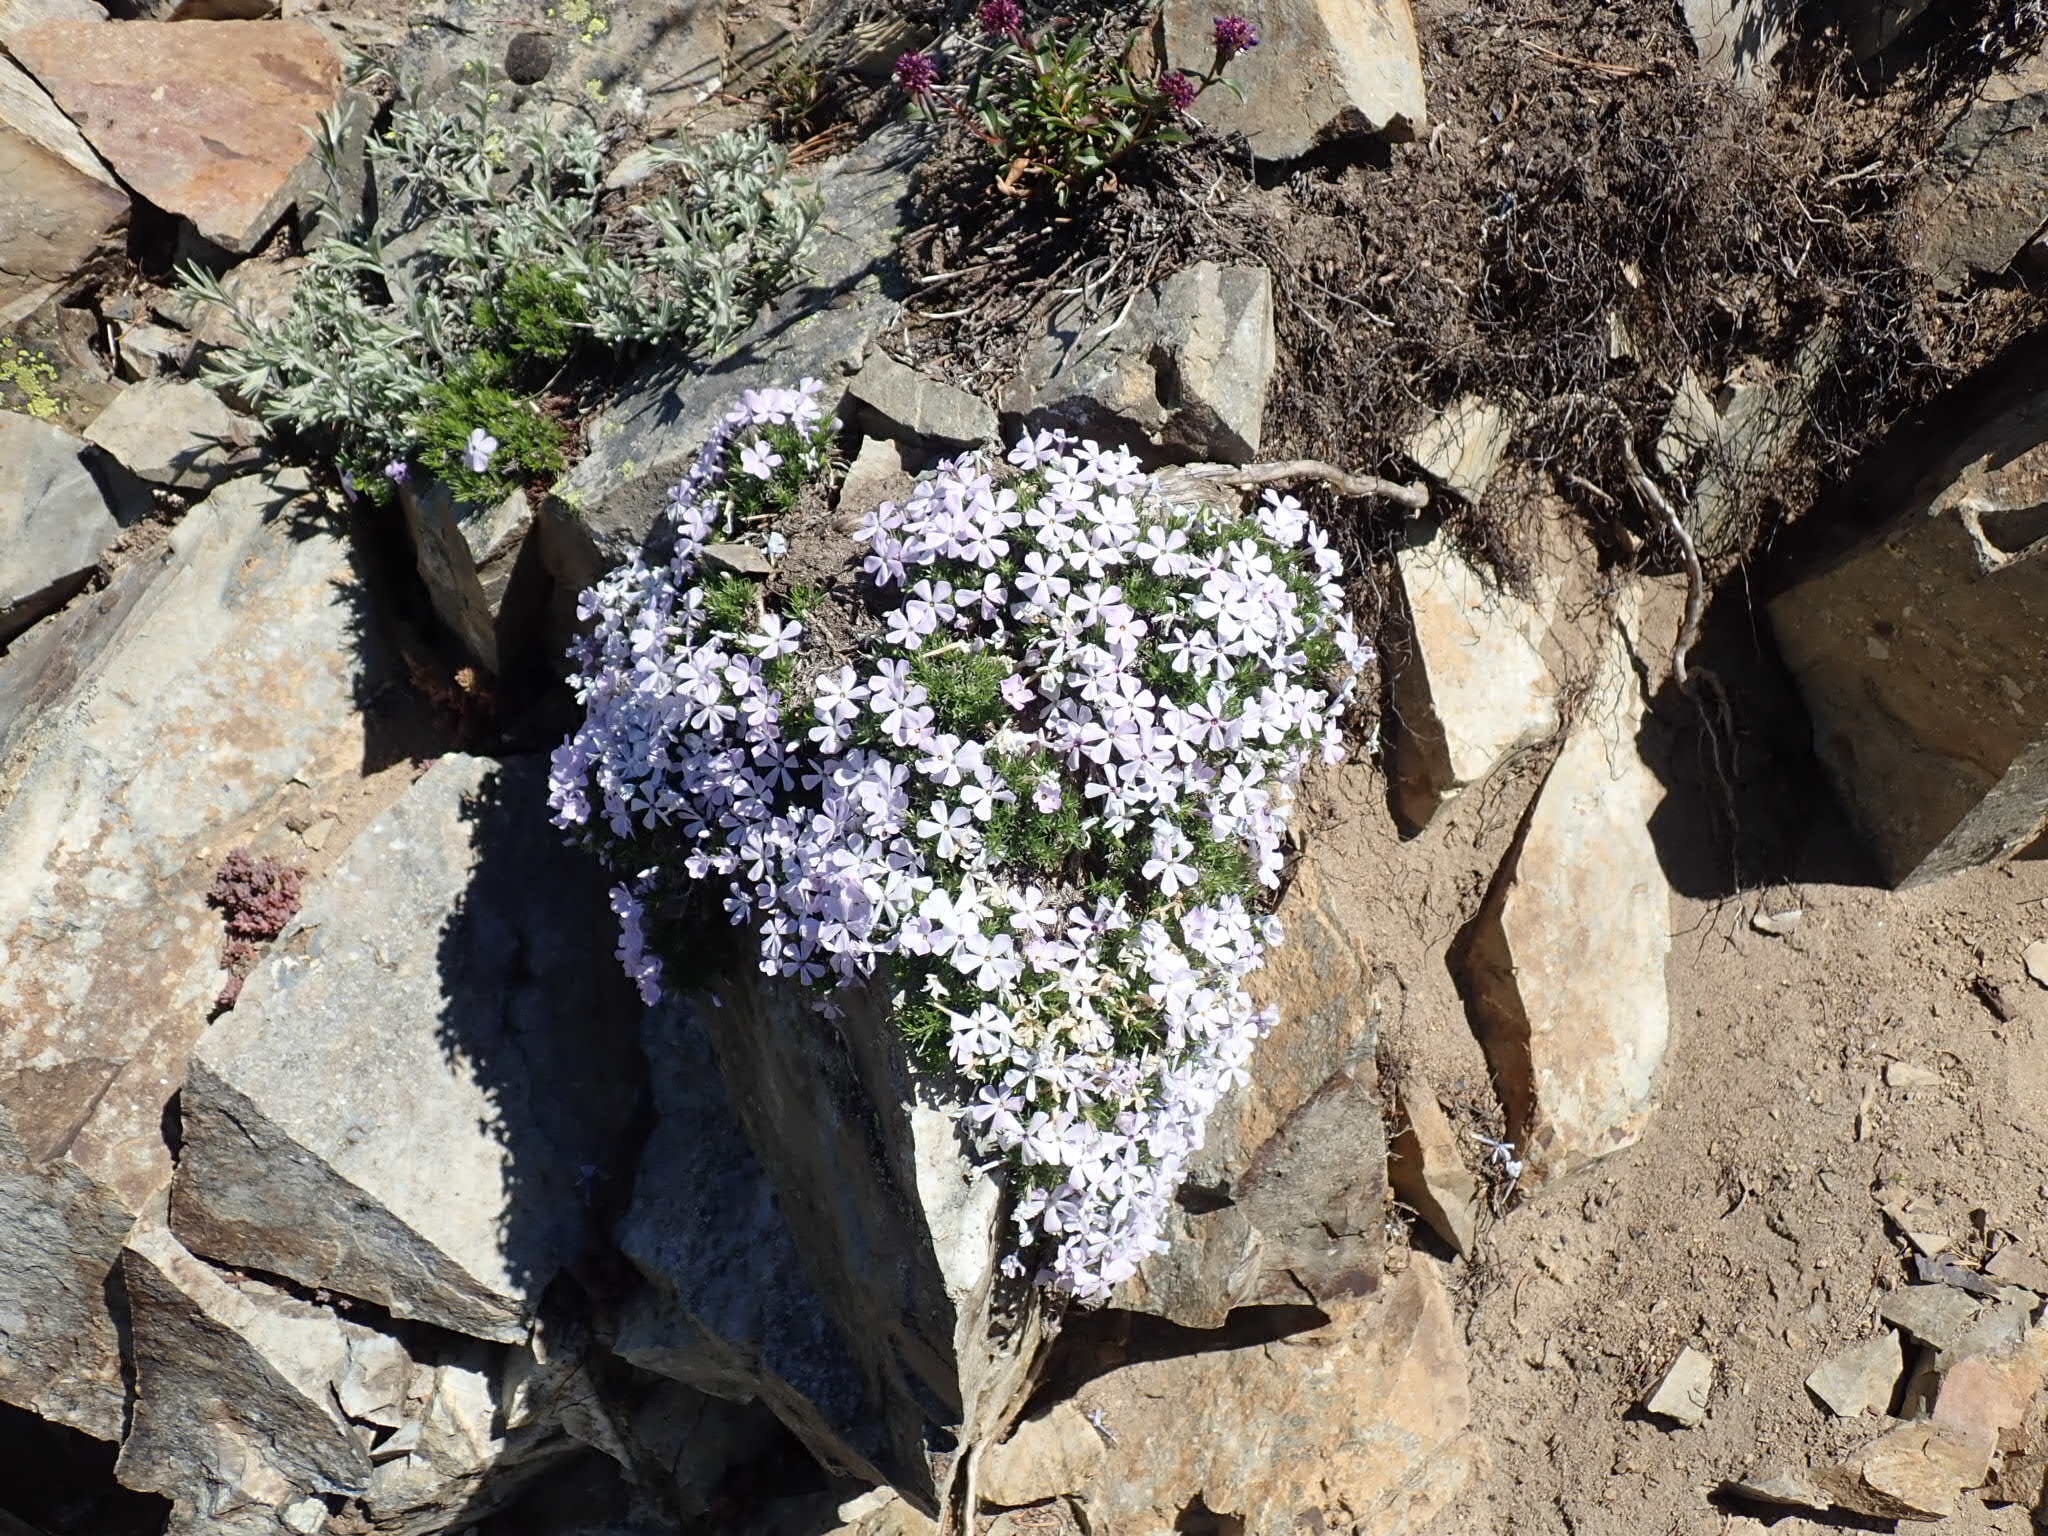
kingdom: Plantae
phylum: Tracheophyta
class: Magnoliopsida
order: Ericales
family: Polemoniaceae
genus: Phlox
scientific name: Phlox diffusa
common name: Mat phlox
